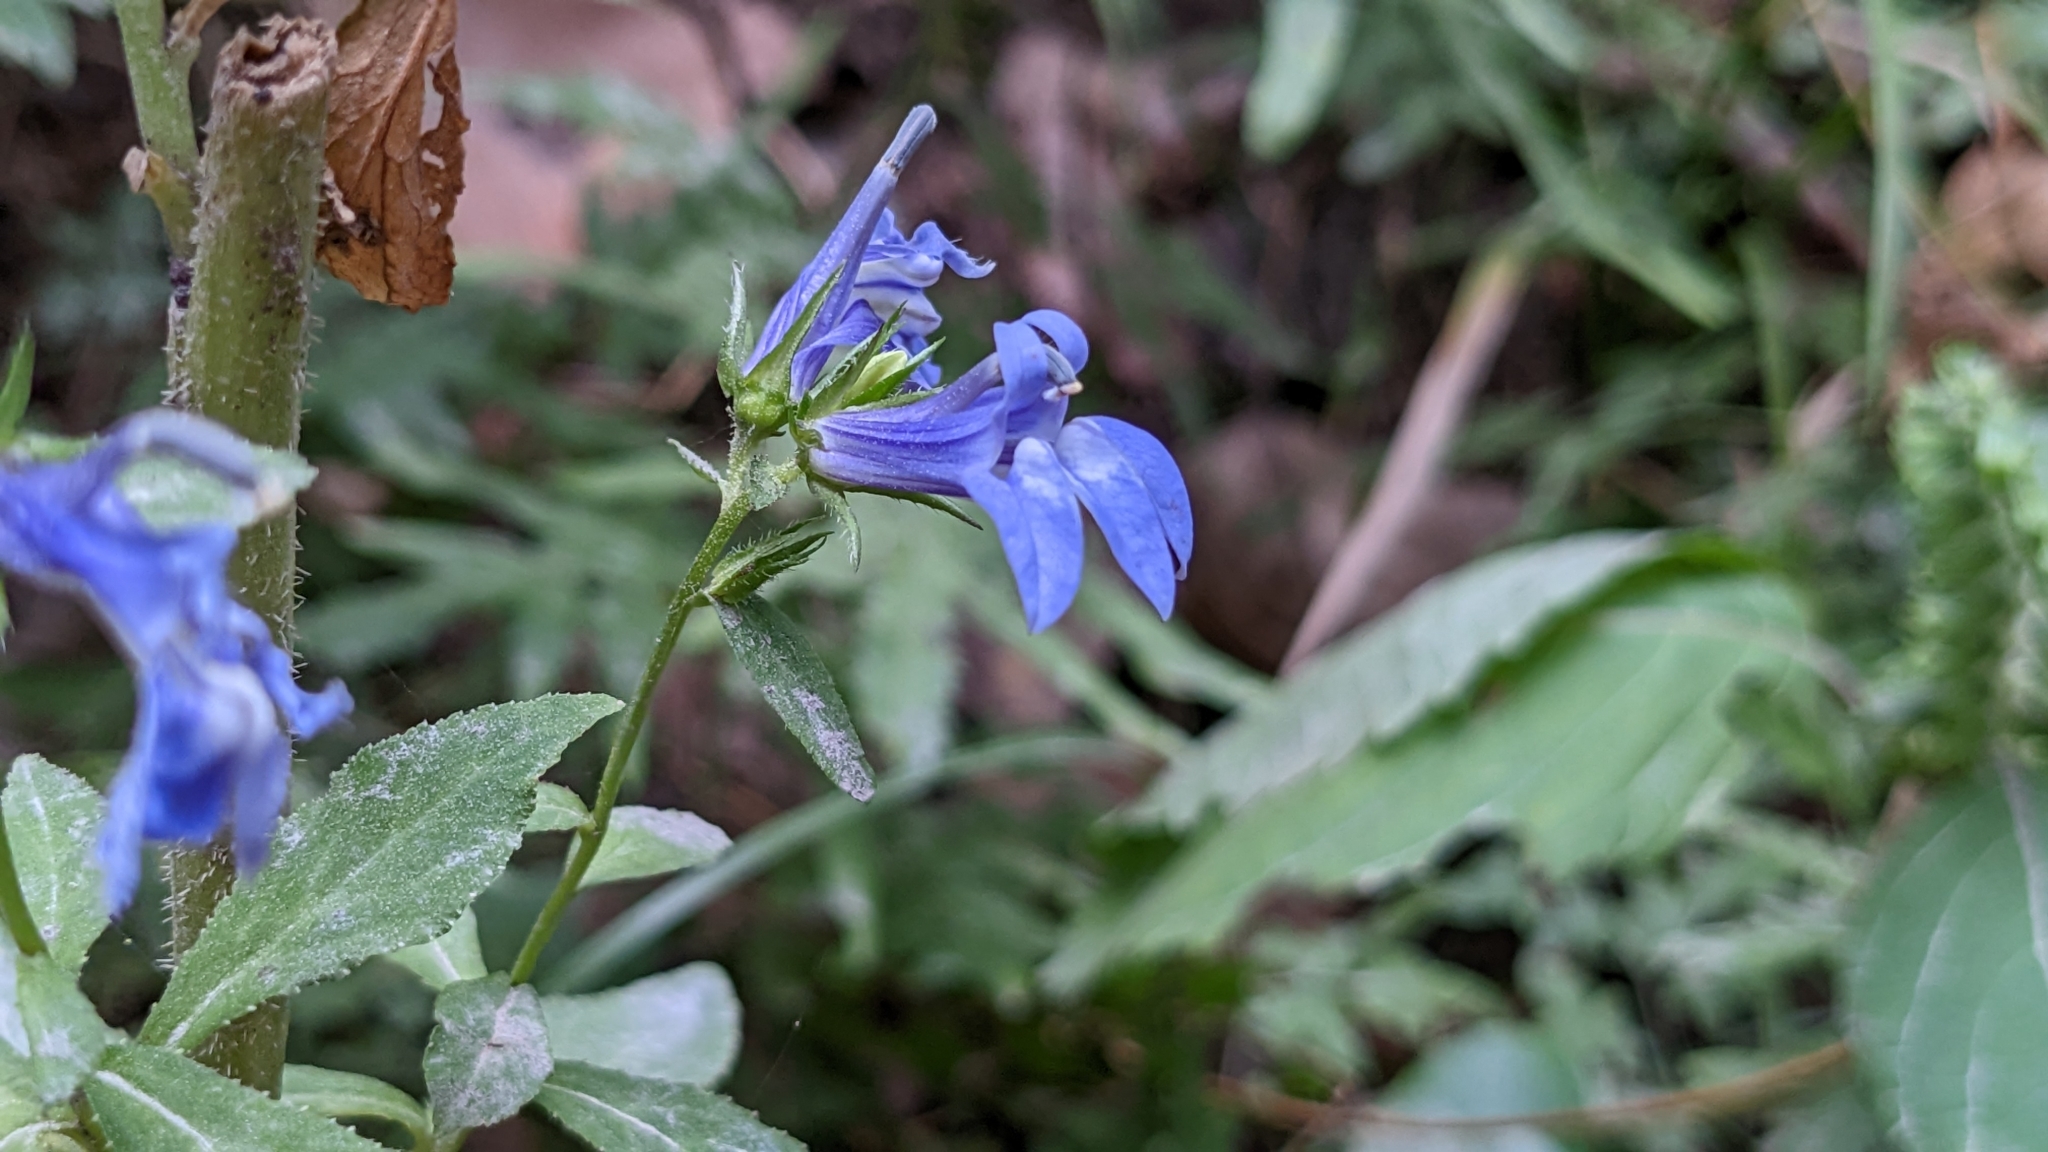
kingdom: Plantae
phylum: Tracheophyta
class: Magnoliopsida
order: Asterales
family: Campanulaceae
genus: Lobelia
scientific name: Lobelia siphilitica
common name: Great lobelia
